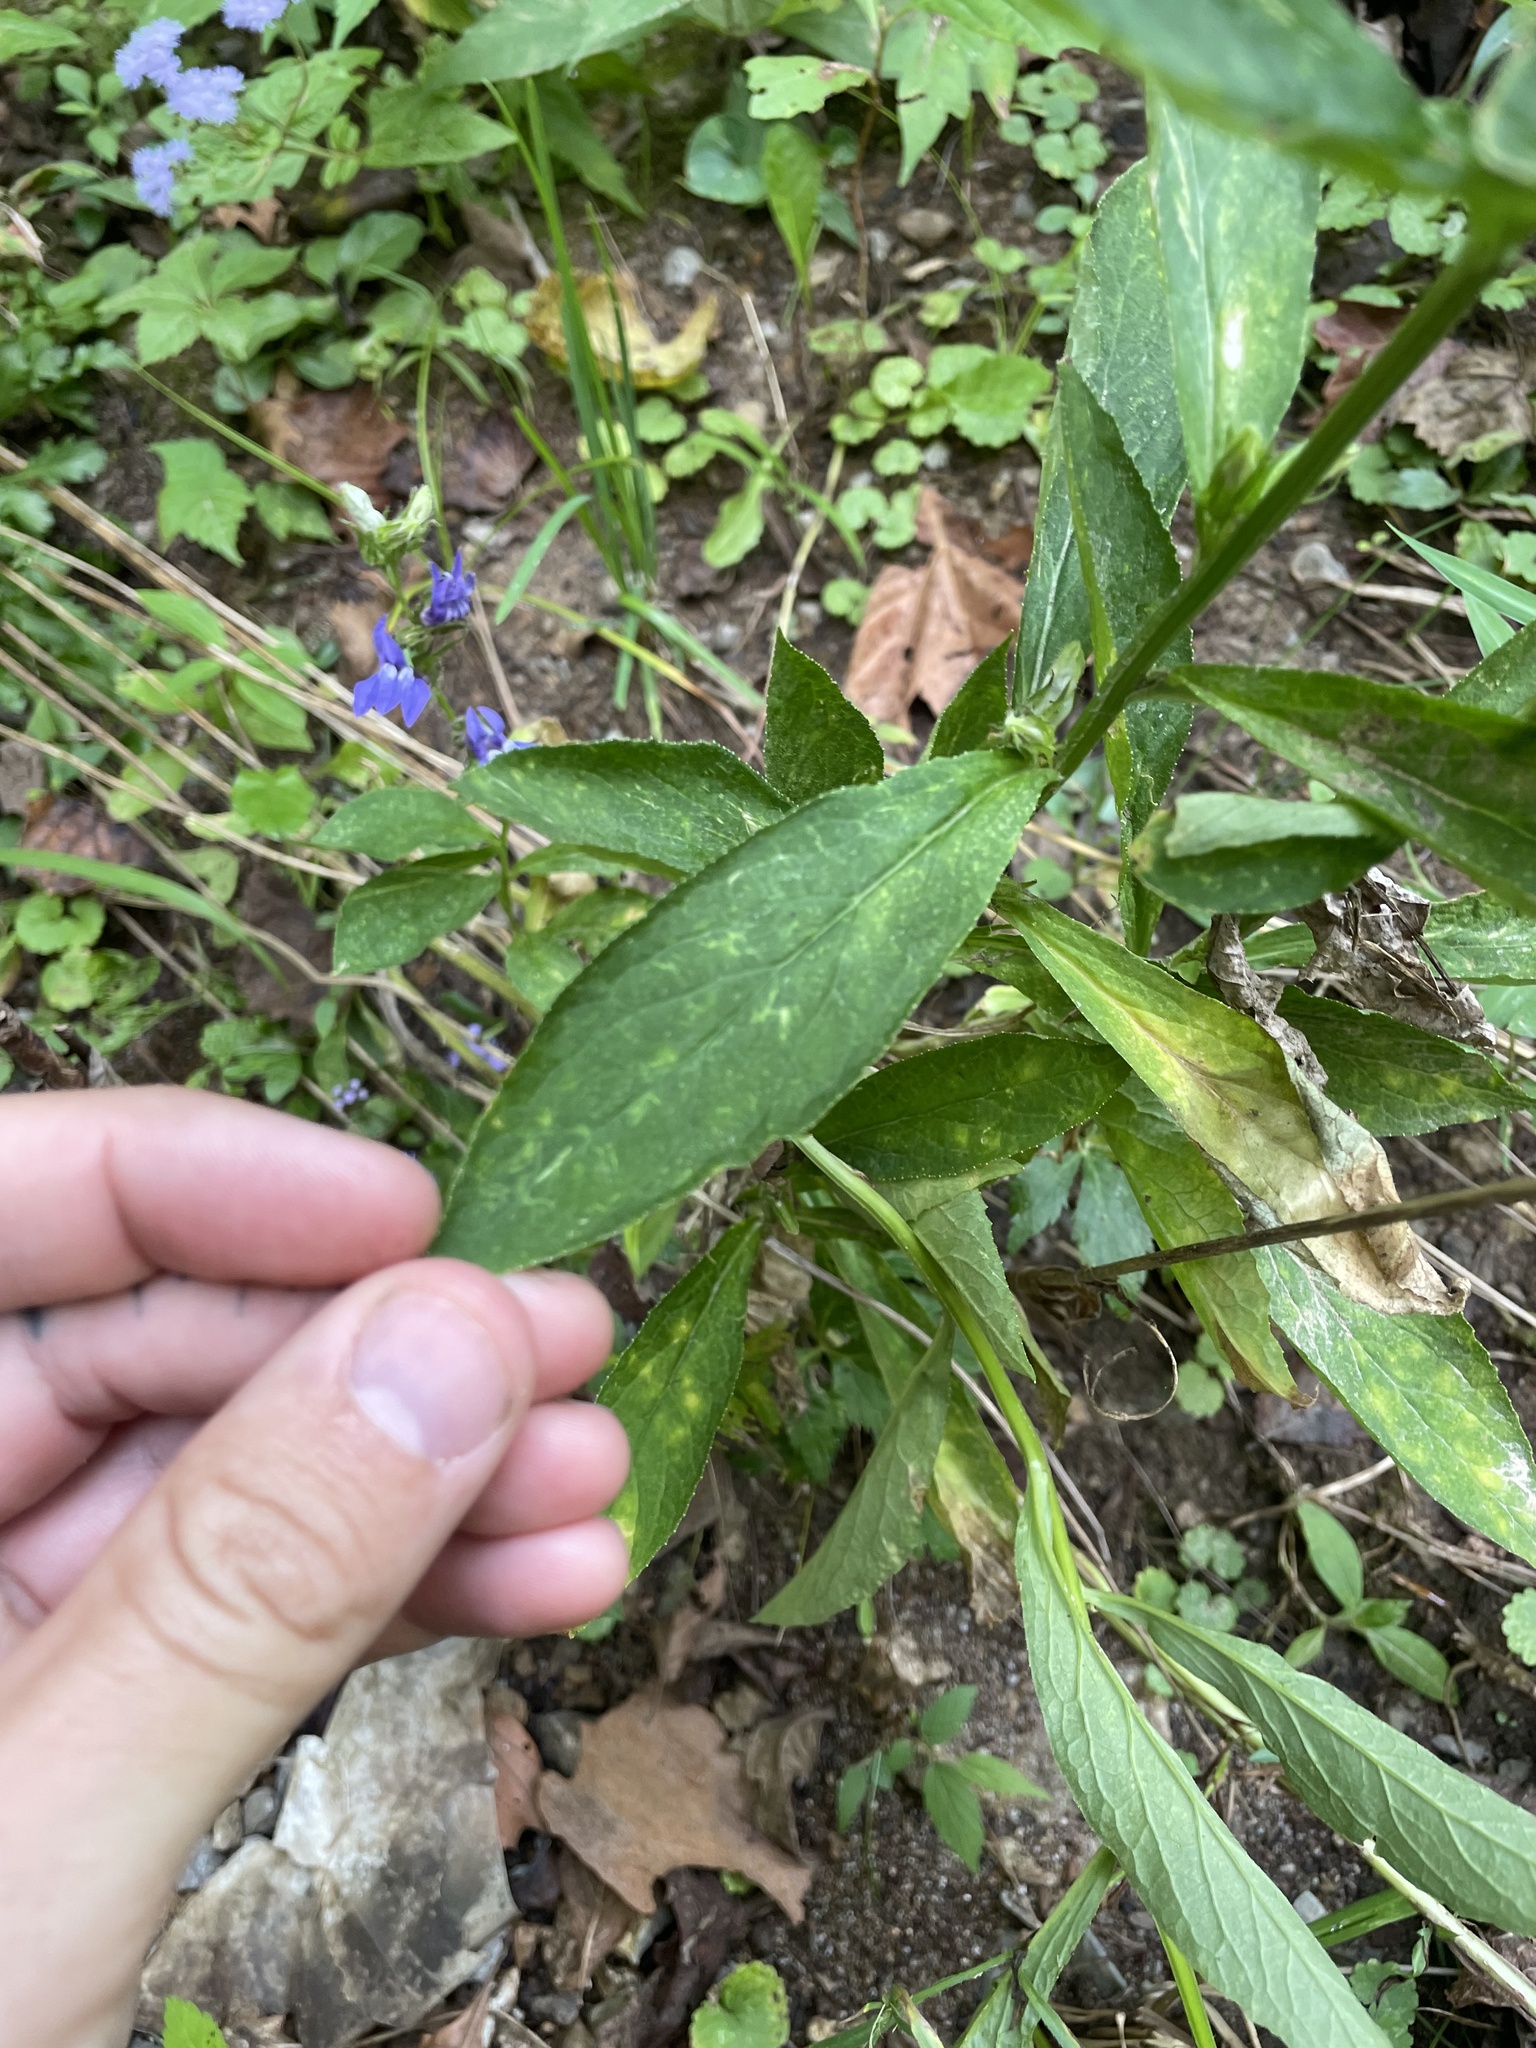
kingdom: Plantae
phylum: Tracheophyta
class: Magnoliopsida
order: Asterales
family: Campanulaceae
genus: Lobelia
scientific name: Lobelia siphilitica
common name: Great lobelia
